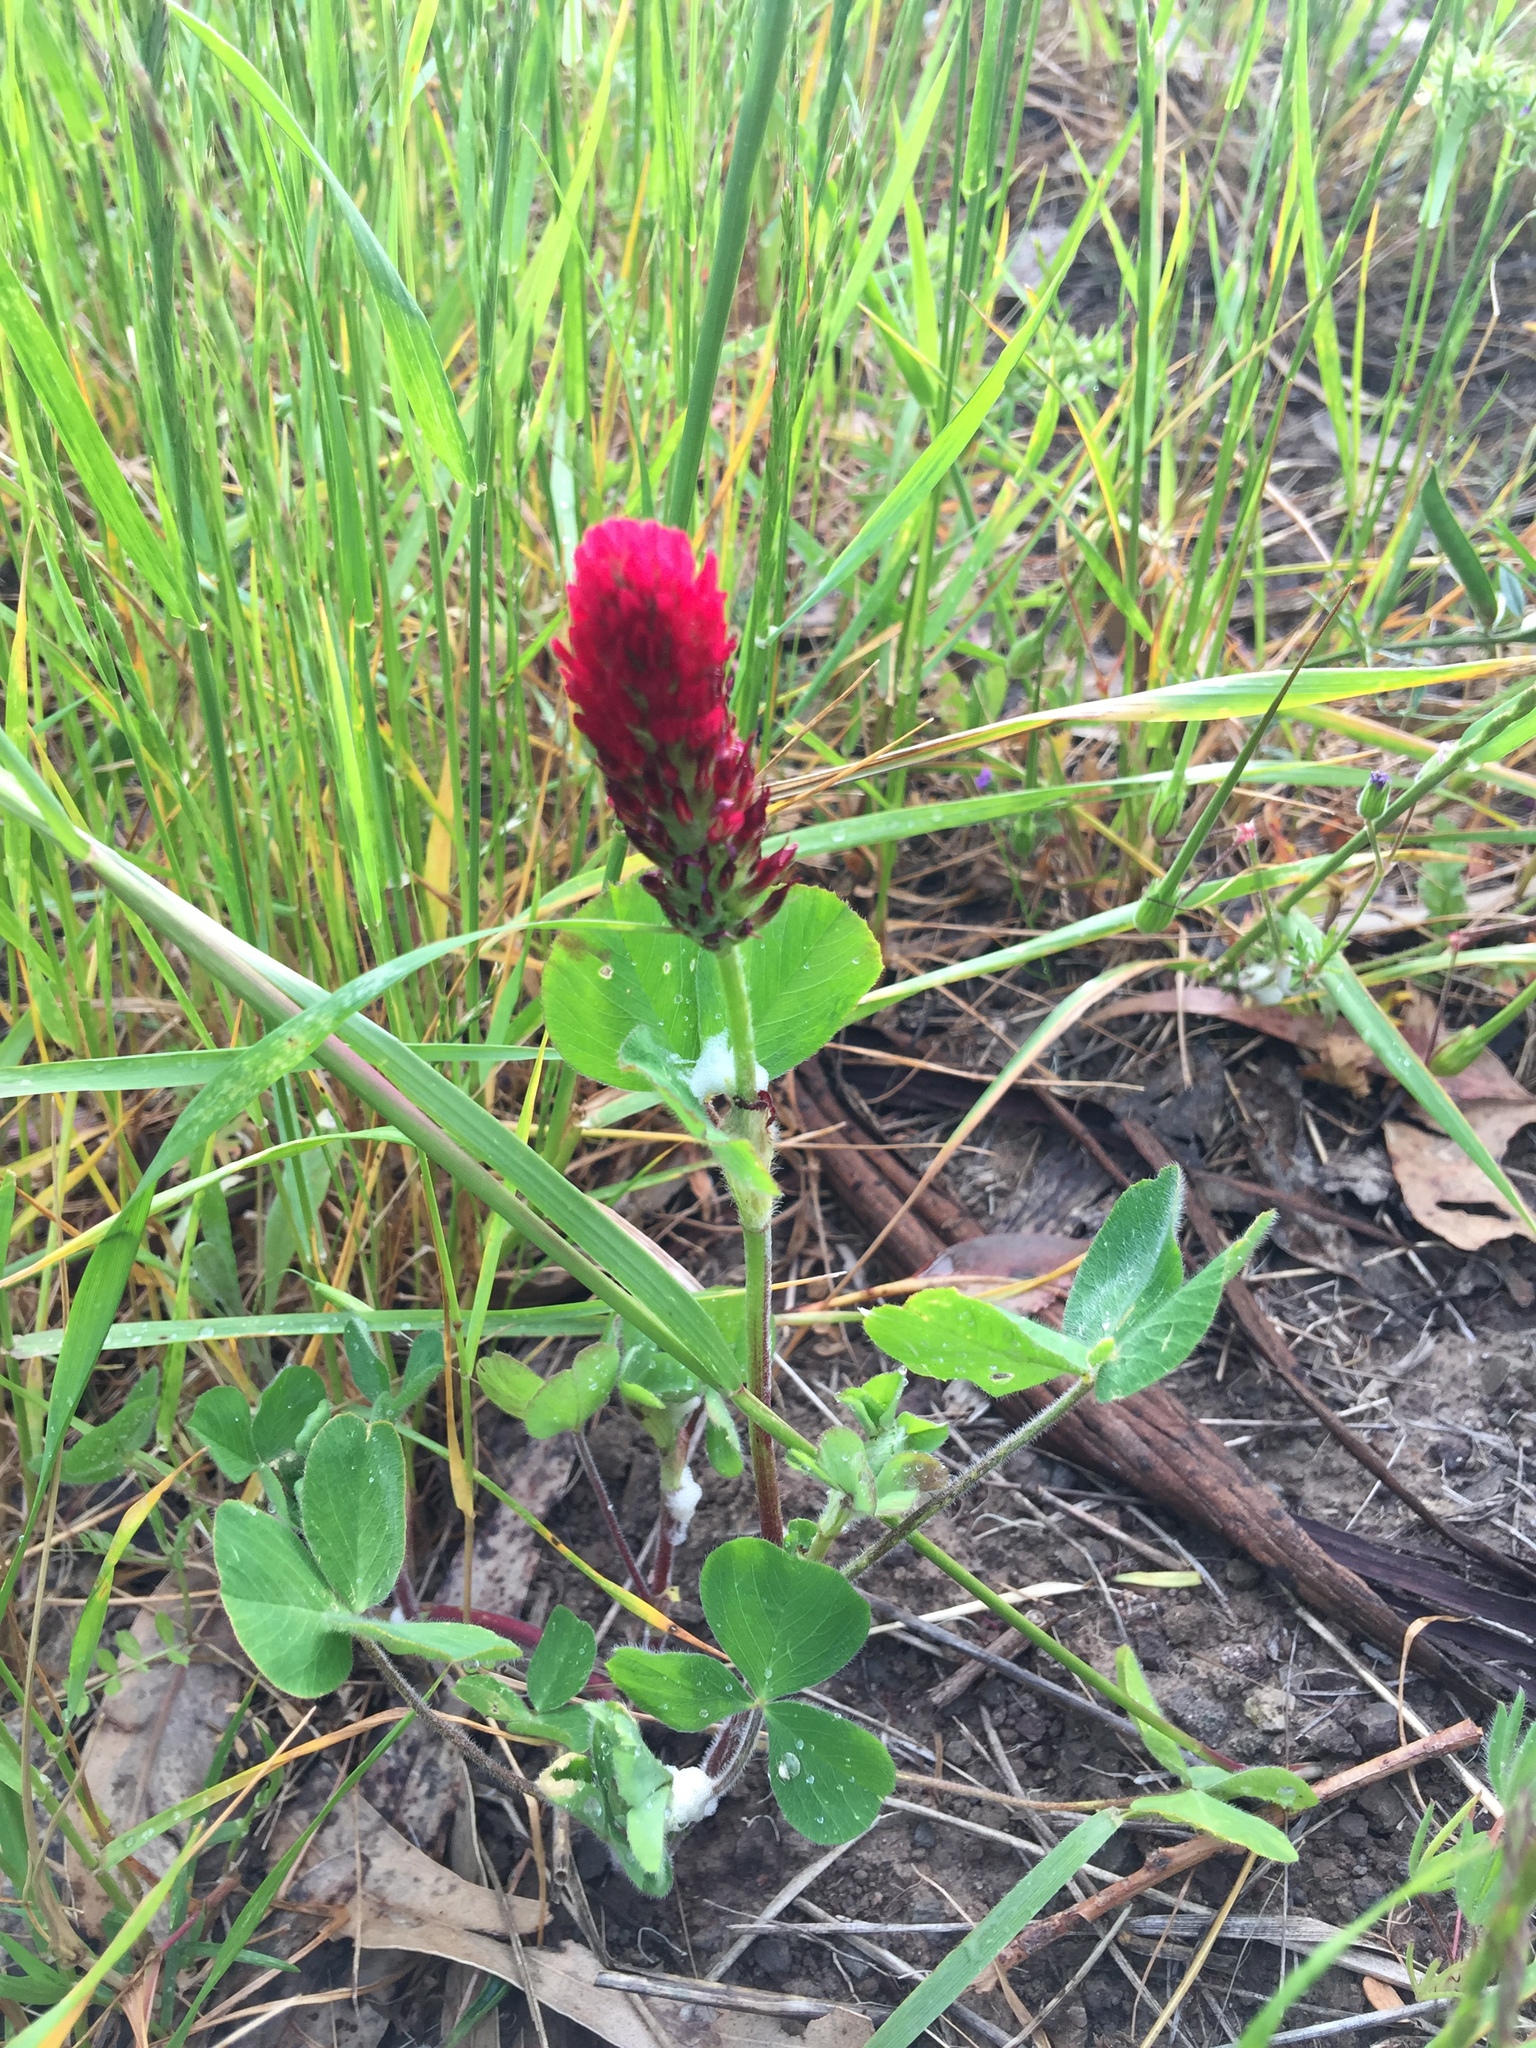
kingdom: Plantae
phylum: Tracheophyta
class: Magnoliopsida
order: Fabales
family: Fabaceae
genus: Trifolium
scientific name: Trifolium incarnatum
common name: Crimson clover
